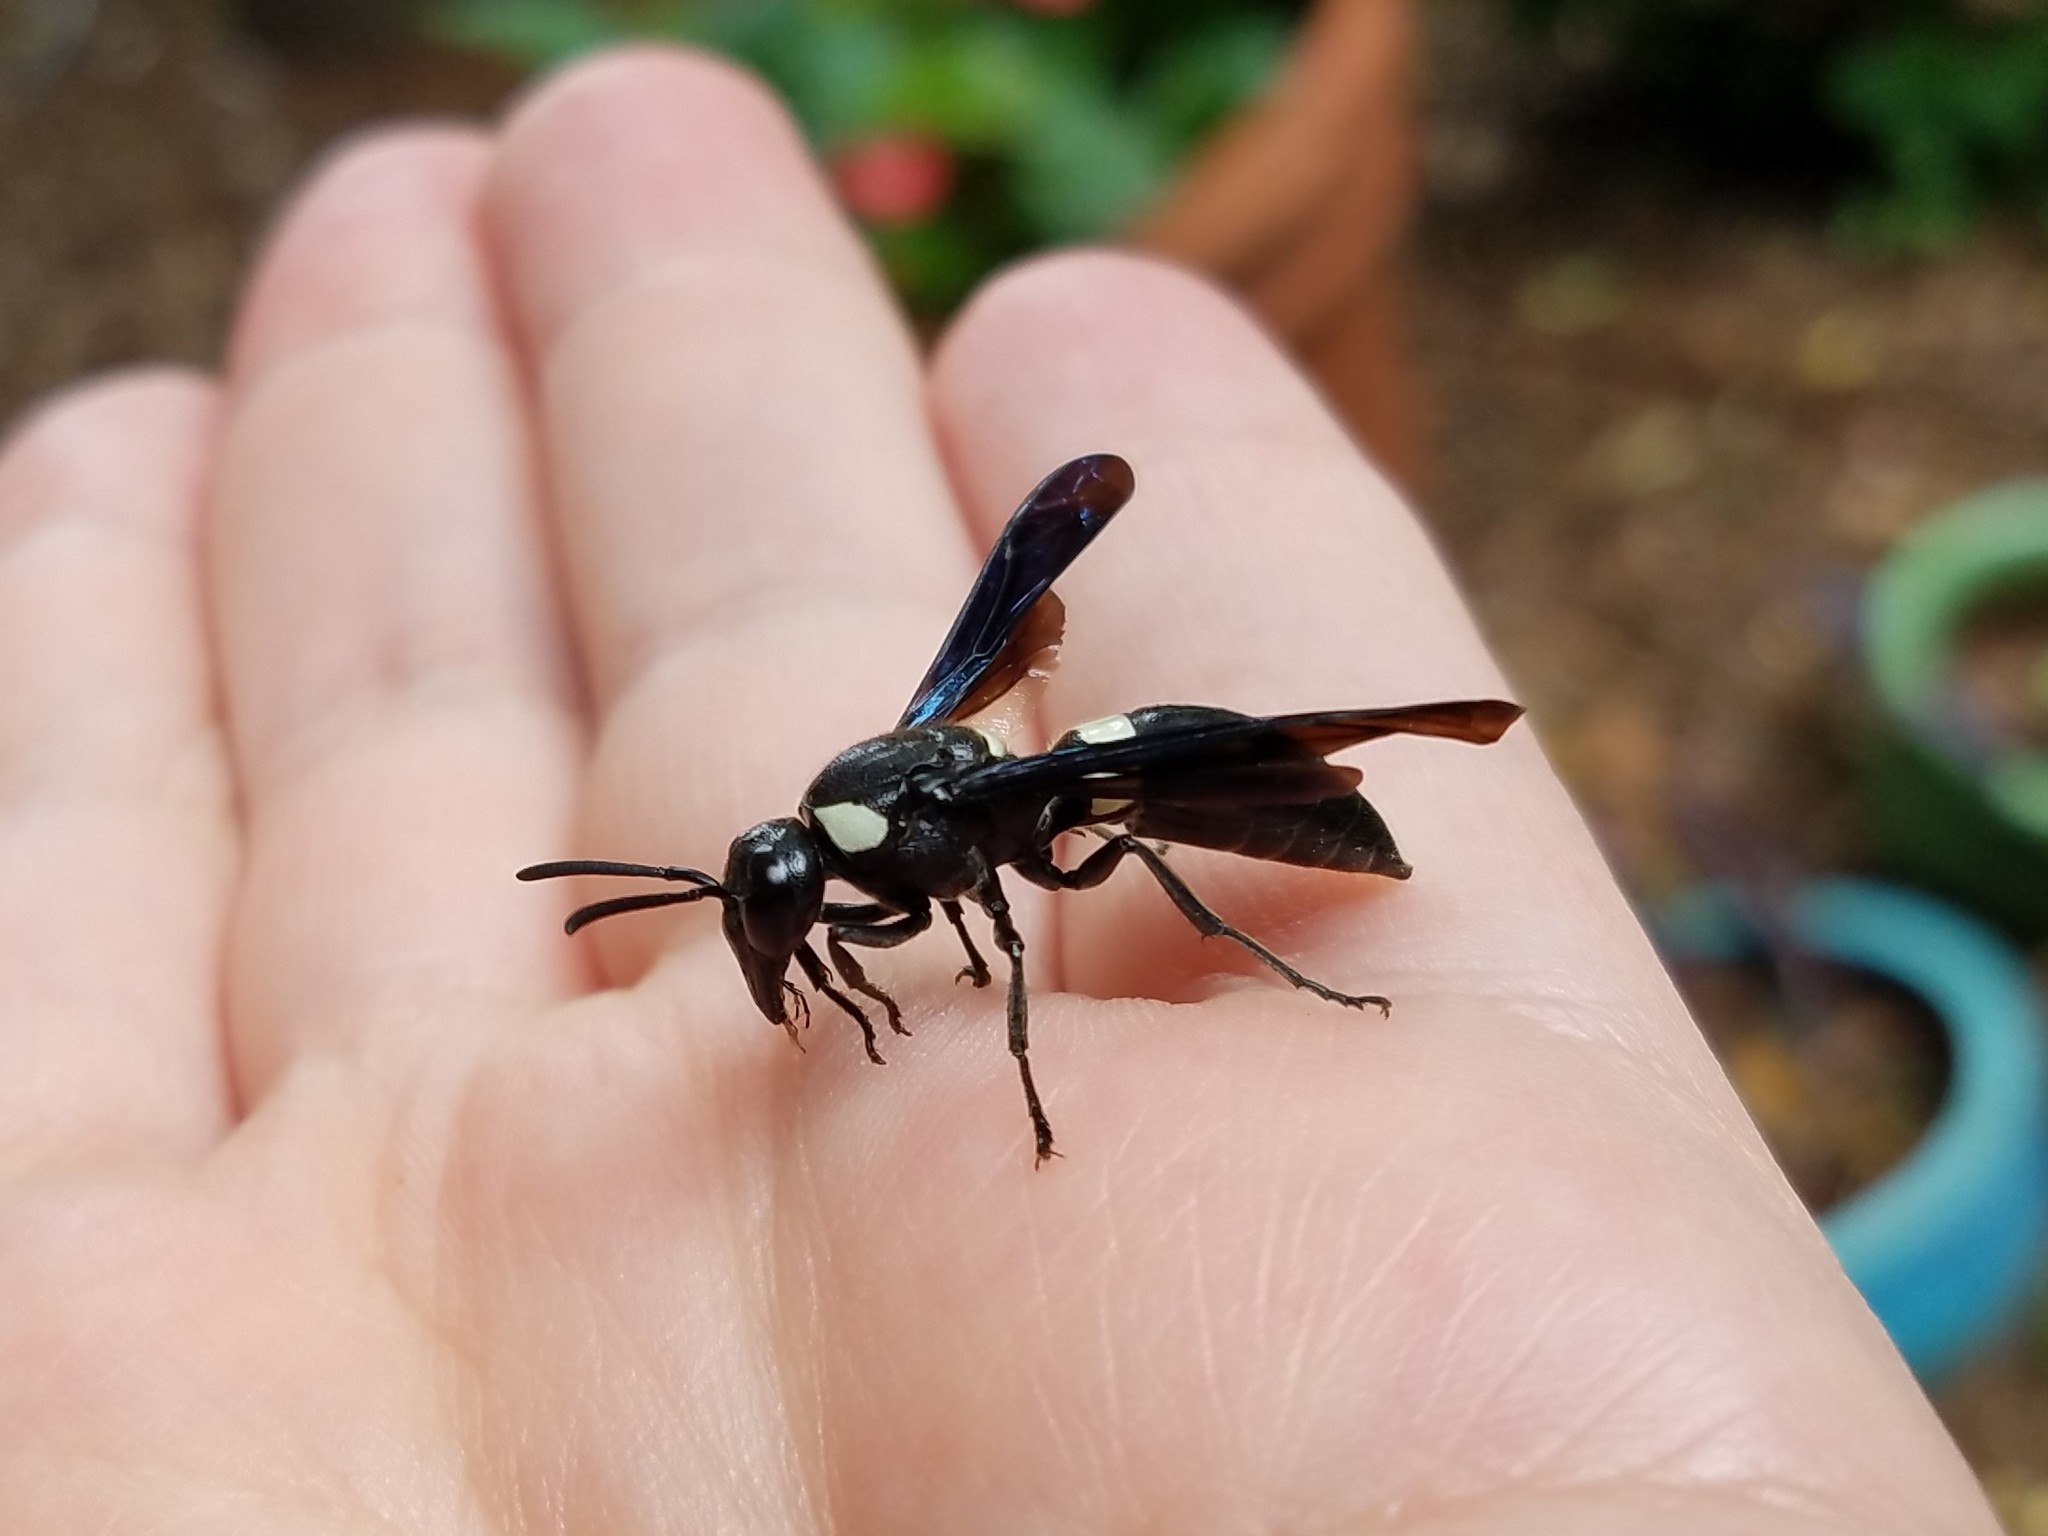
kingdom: Animalia
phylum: Arthropoda
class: Insecta
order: Hymenoptera
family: Eumenidae
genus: Monobia
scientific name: Monobia quadridens
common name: Four-toothed mason wasp
